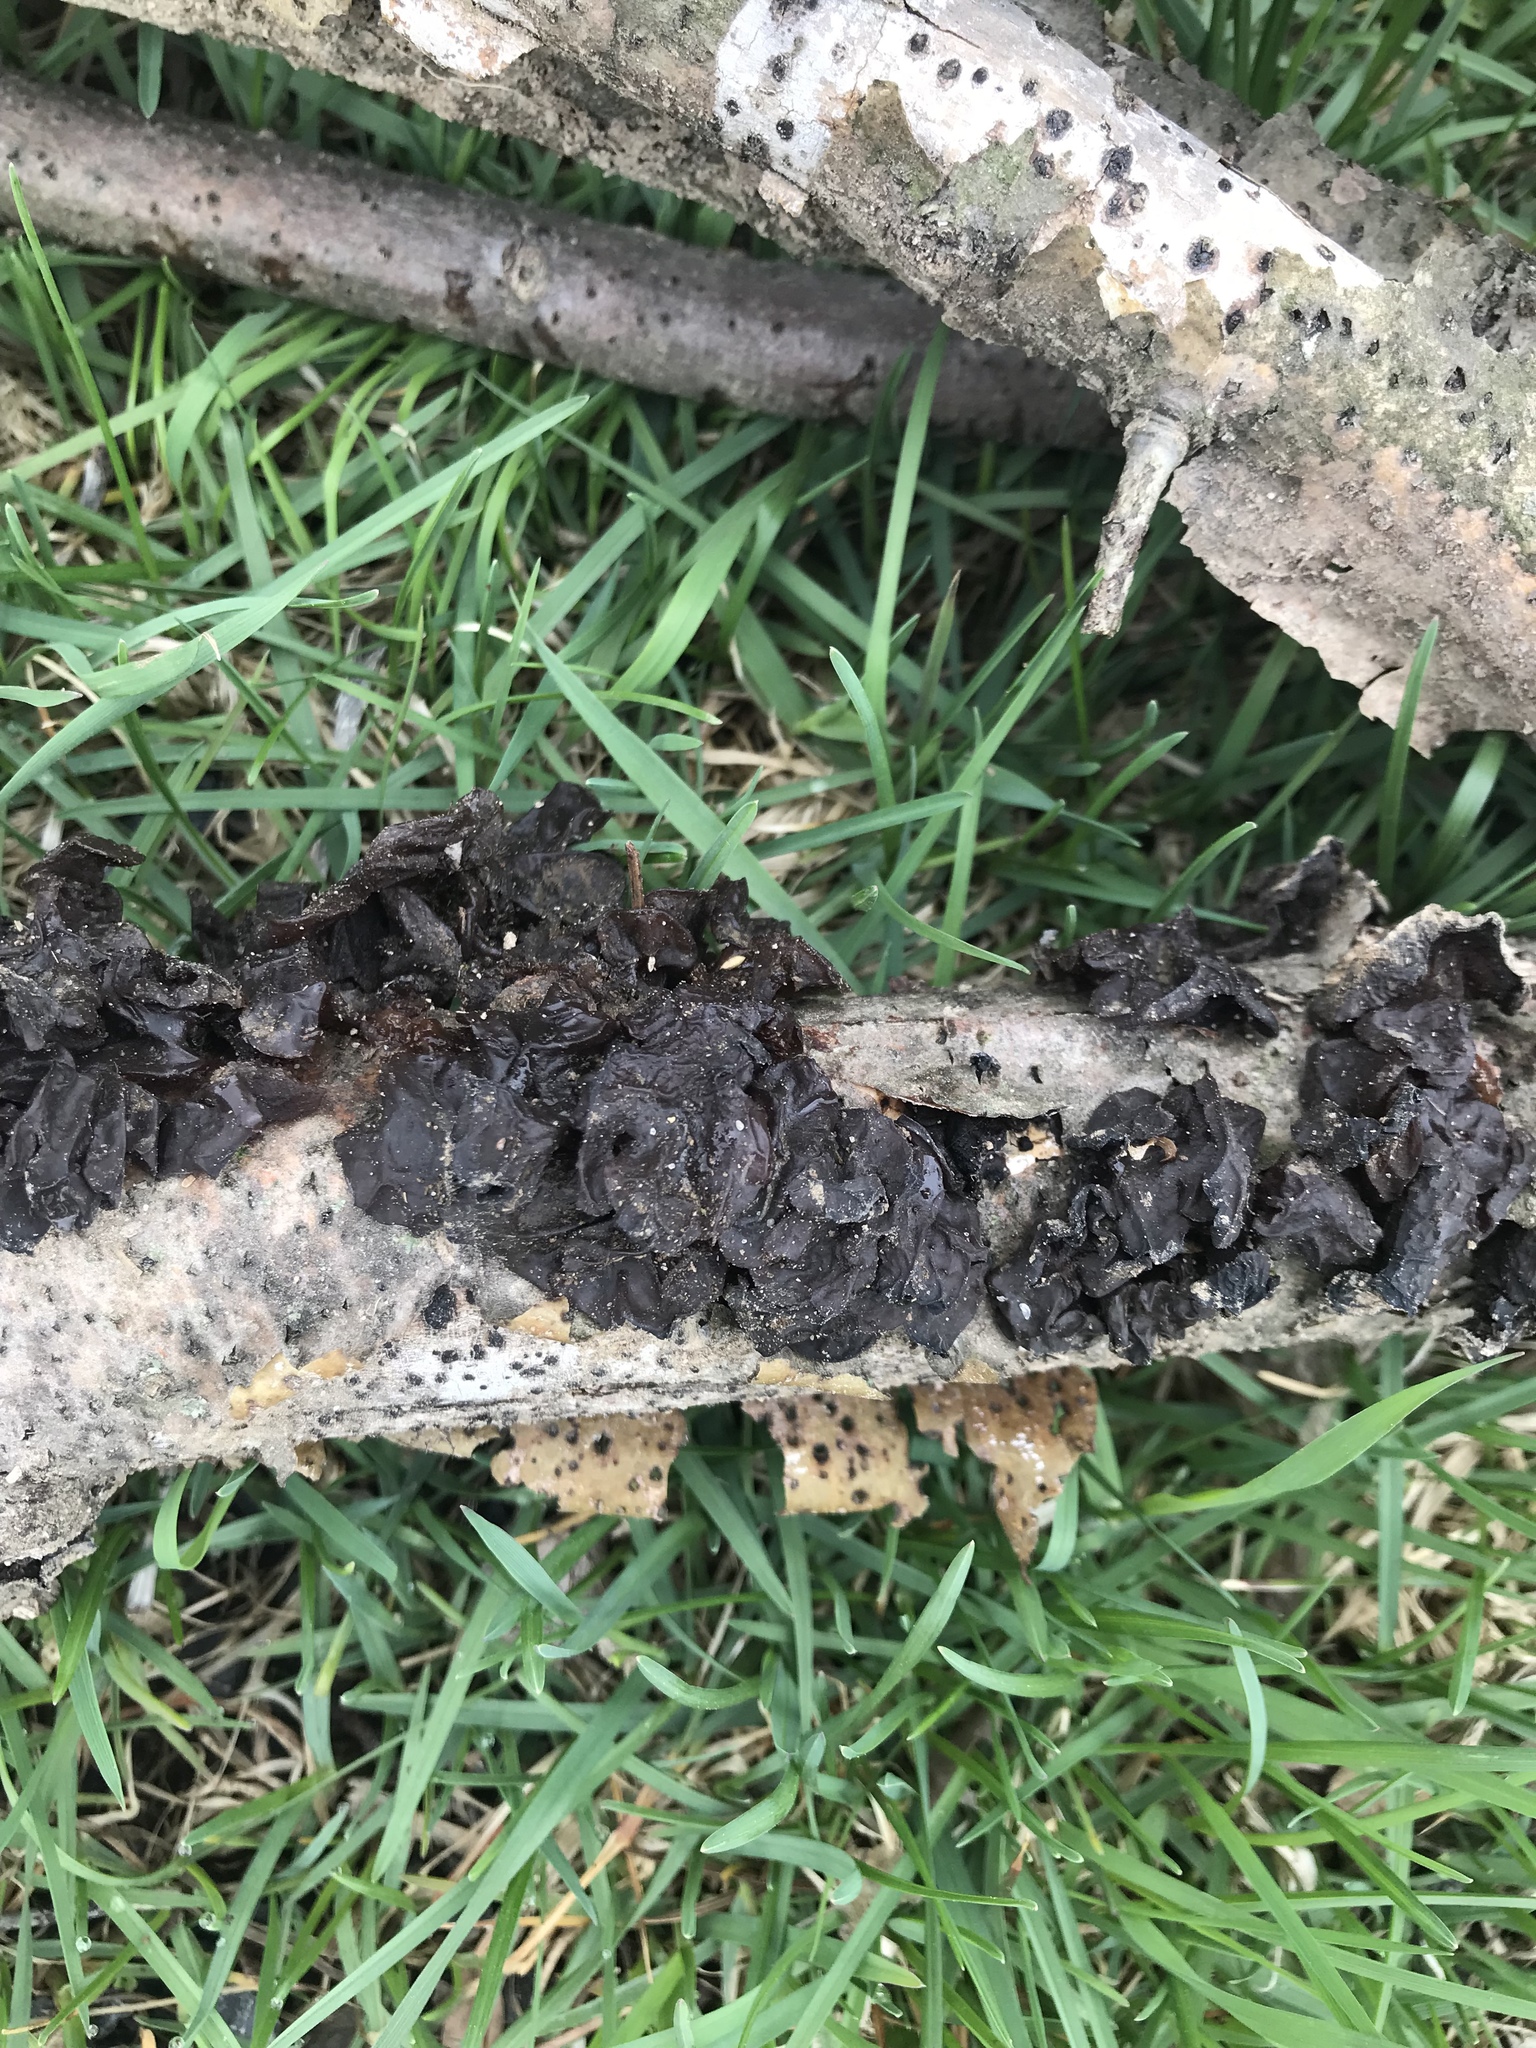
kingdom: Fungi
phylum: Basidiomycota
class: Agaricomycetes
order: Auriculariales
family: Auriculariaceae
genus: Exidia
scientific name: Exidia
